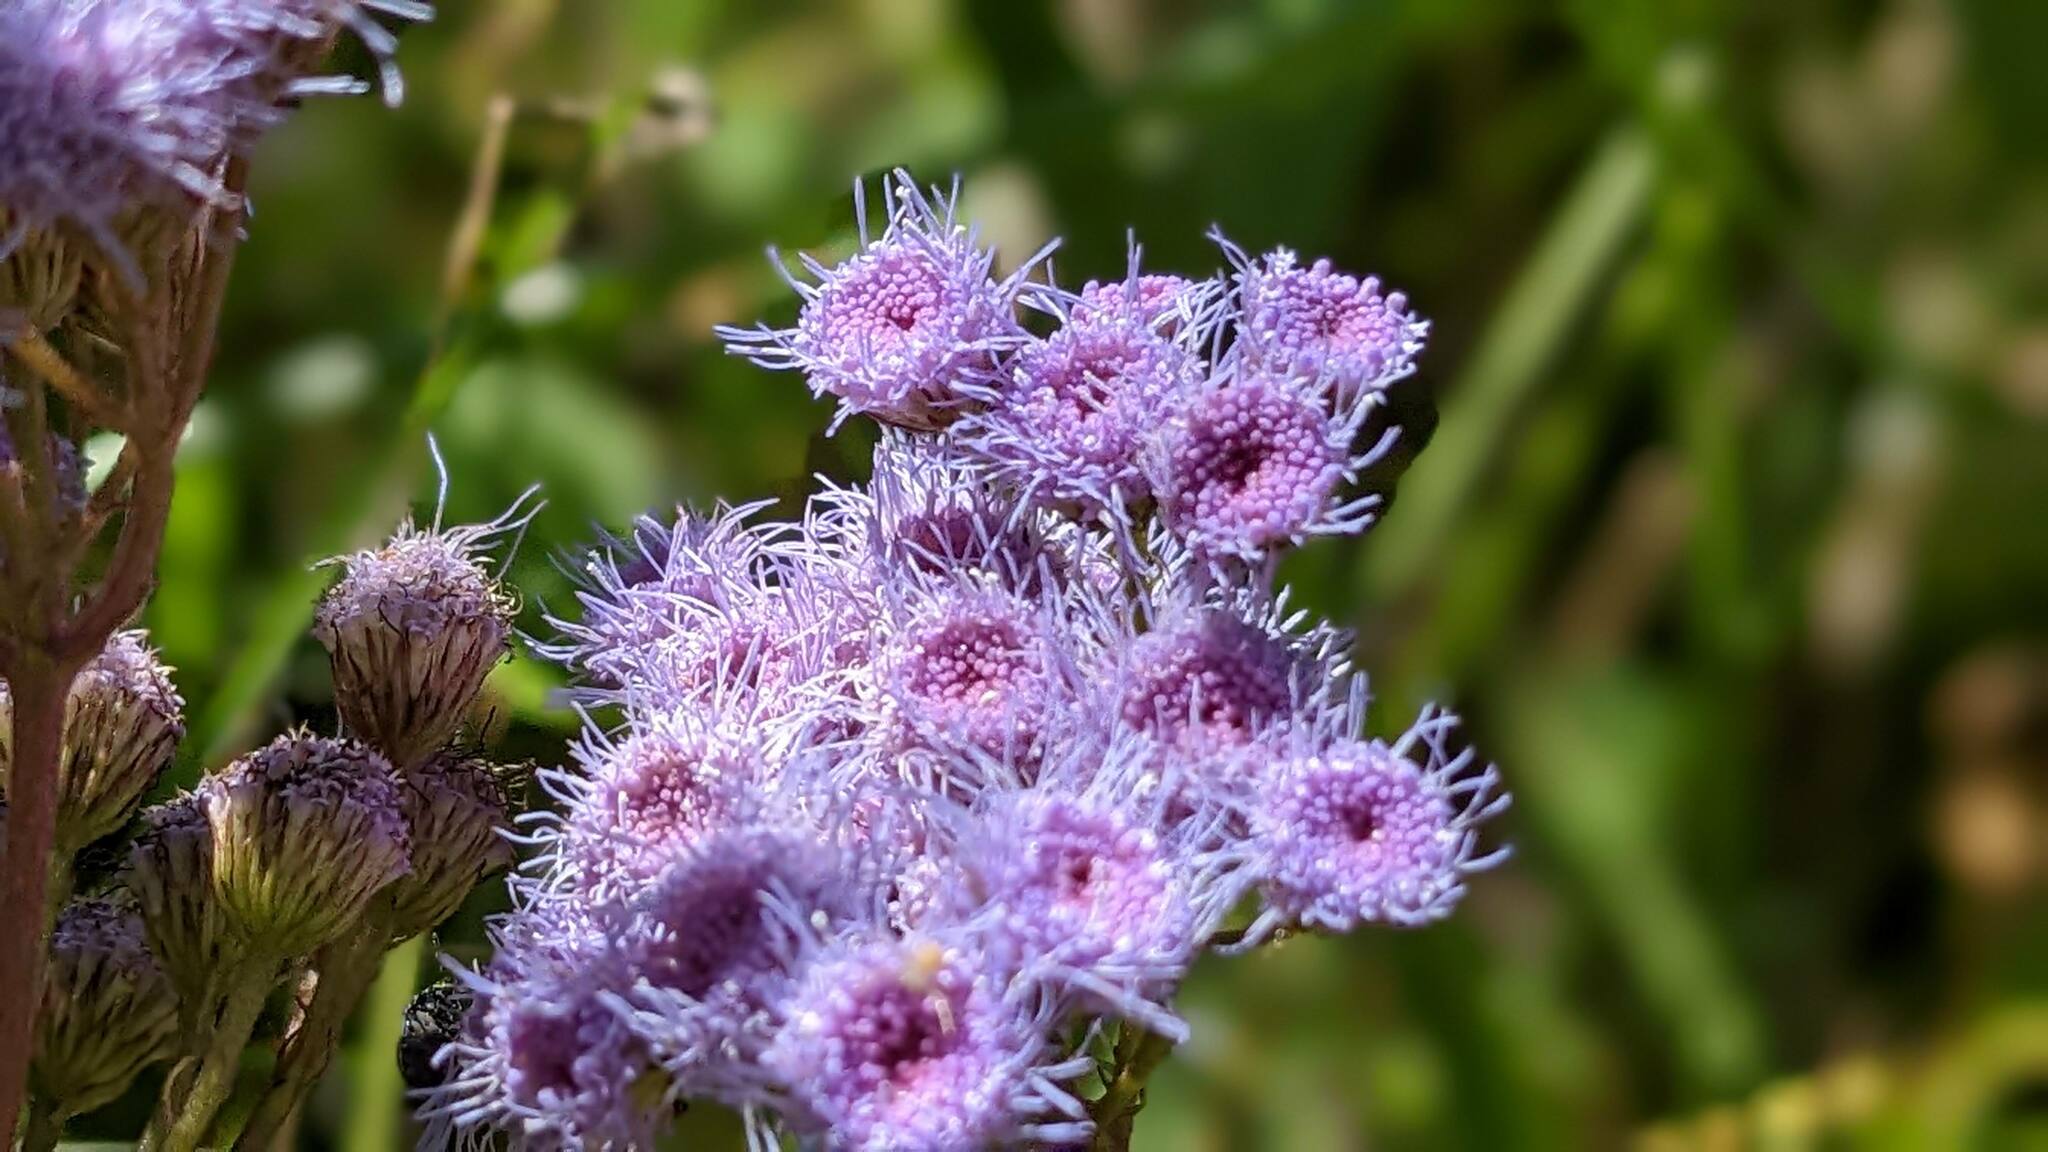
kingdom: Plantae
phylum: Tracheophyta
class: Magnoliopsida
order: Asterales
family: Asteraceae
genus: Conoclinium
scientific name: Conoclinium coelestinum
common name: Blue mistflower
